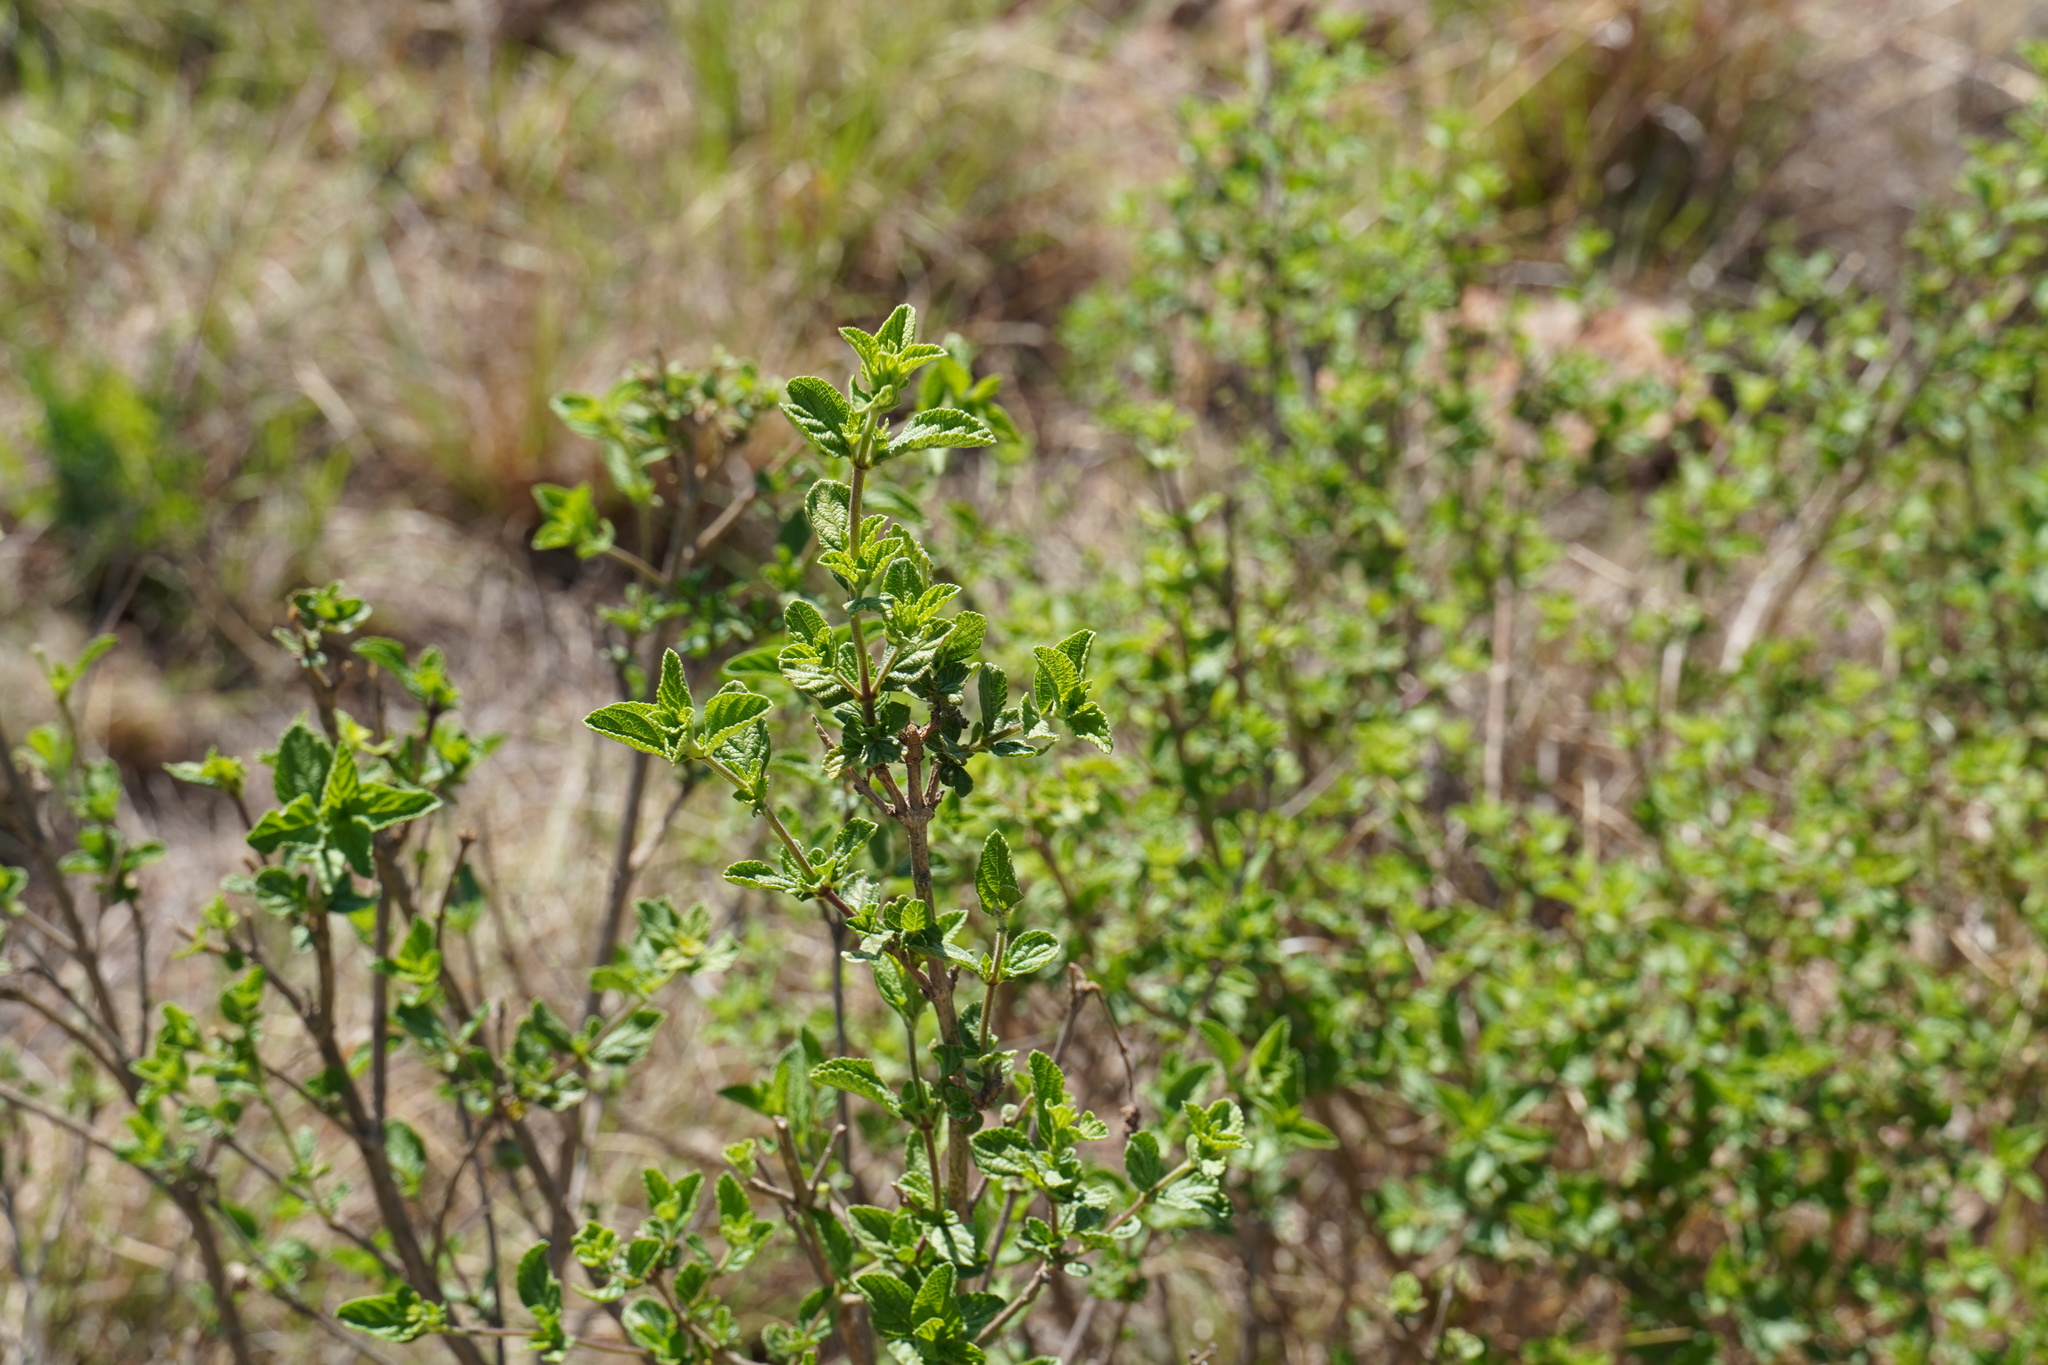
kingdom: Plantae
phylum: Tracheophyta
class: Magnoliopsida
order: Lamiales
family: Verbenaceae
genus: Lippia
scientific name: Lippia javanica
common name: Lemonbush
